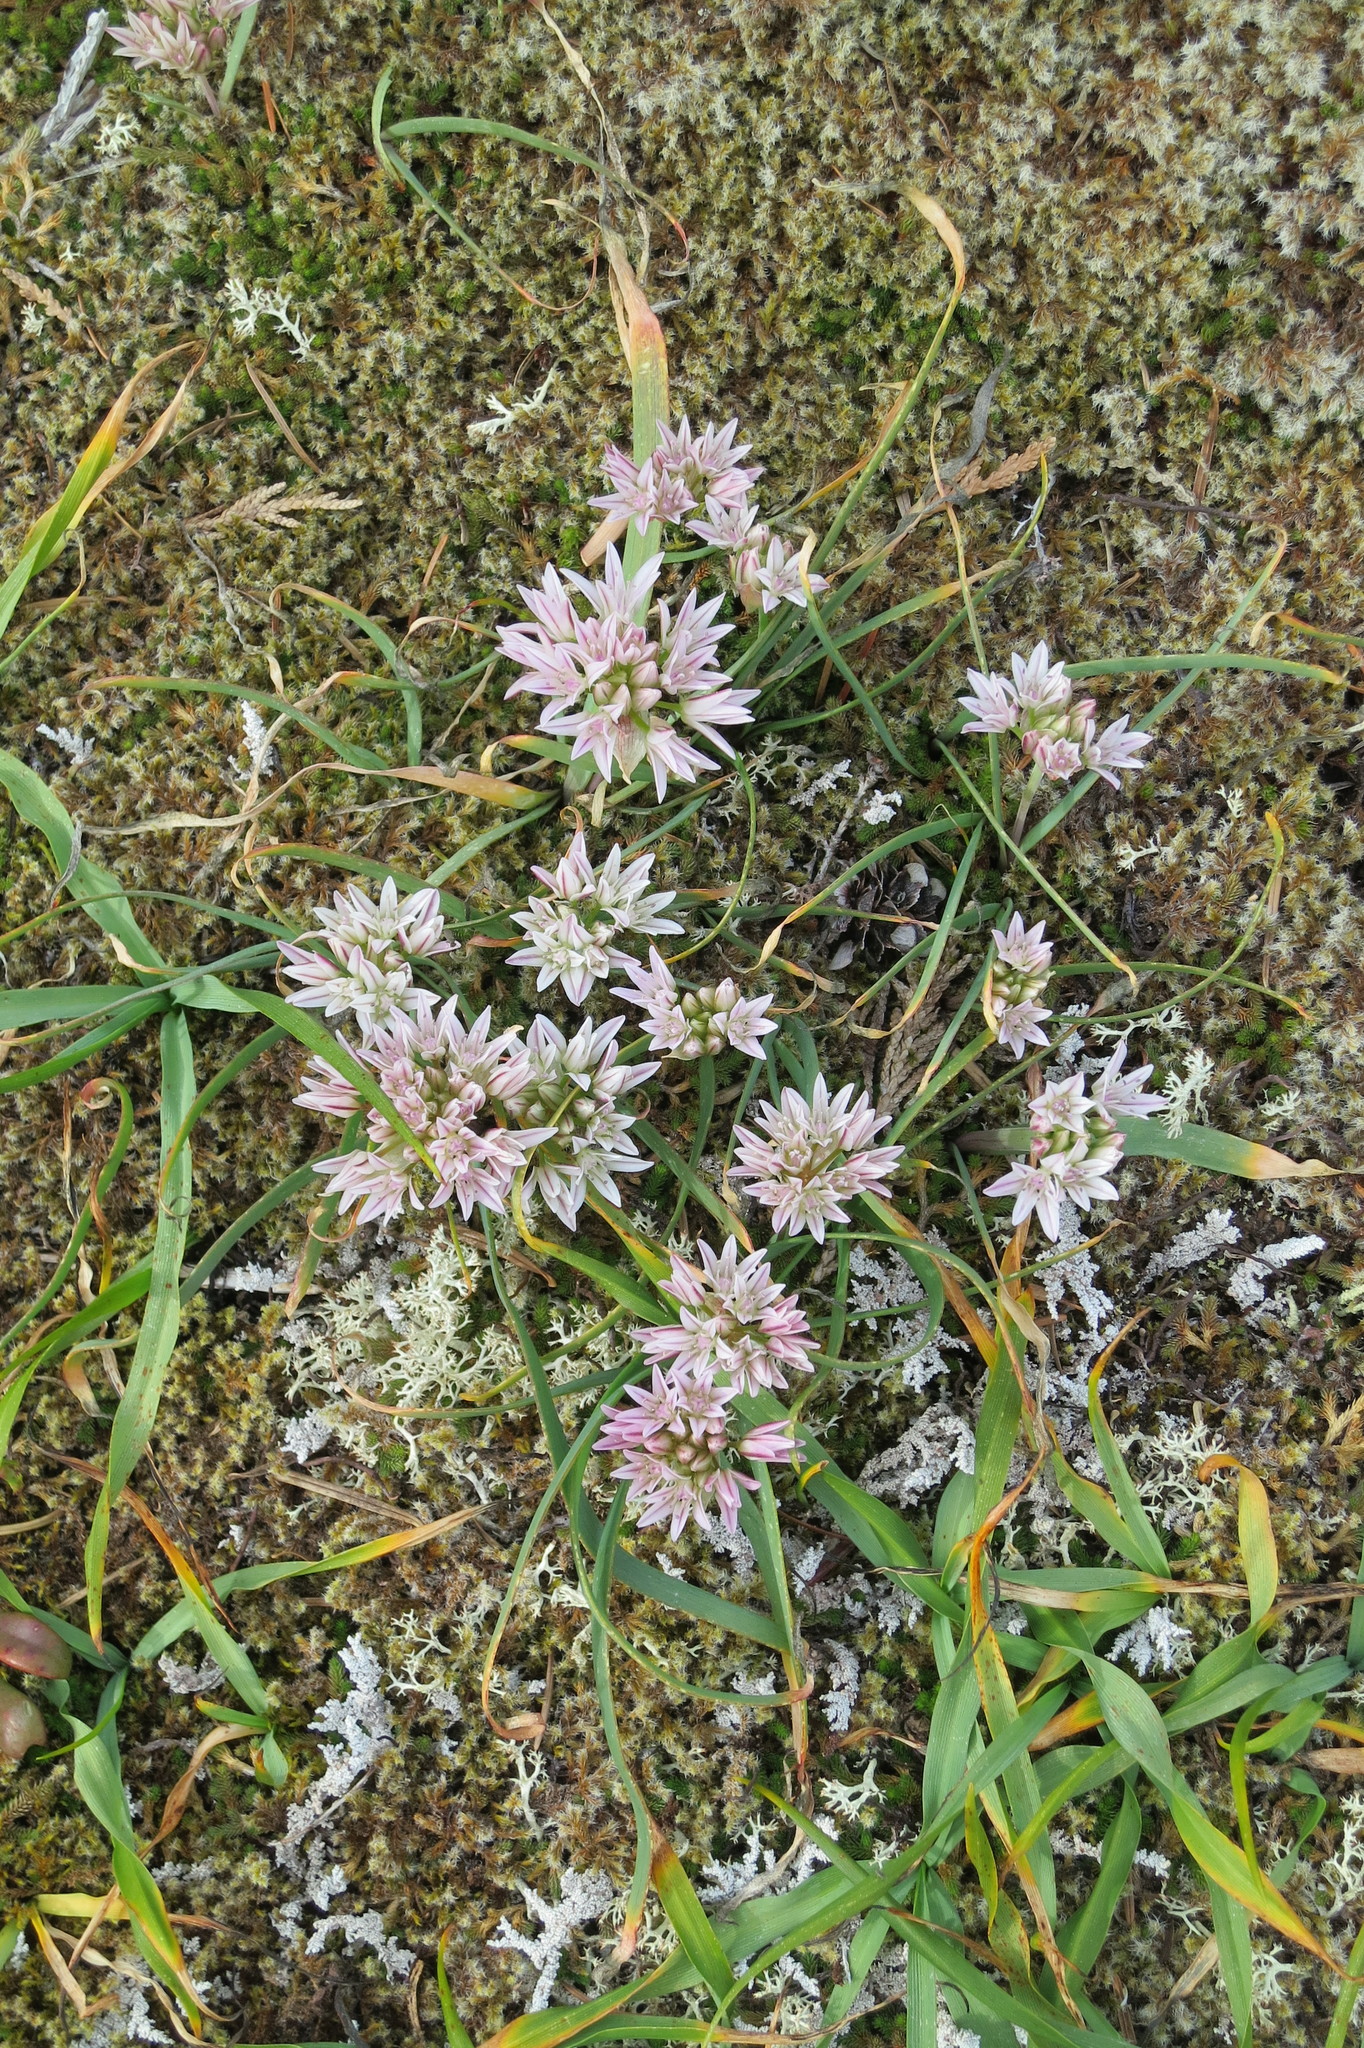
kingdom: Plantae
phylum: Tracheophyta
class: Liliopsida
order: Asparagales
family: Amaryllidaceae
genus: Allium
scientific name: Allium crenulatum
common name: Olympic onion
